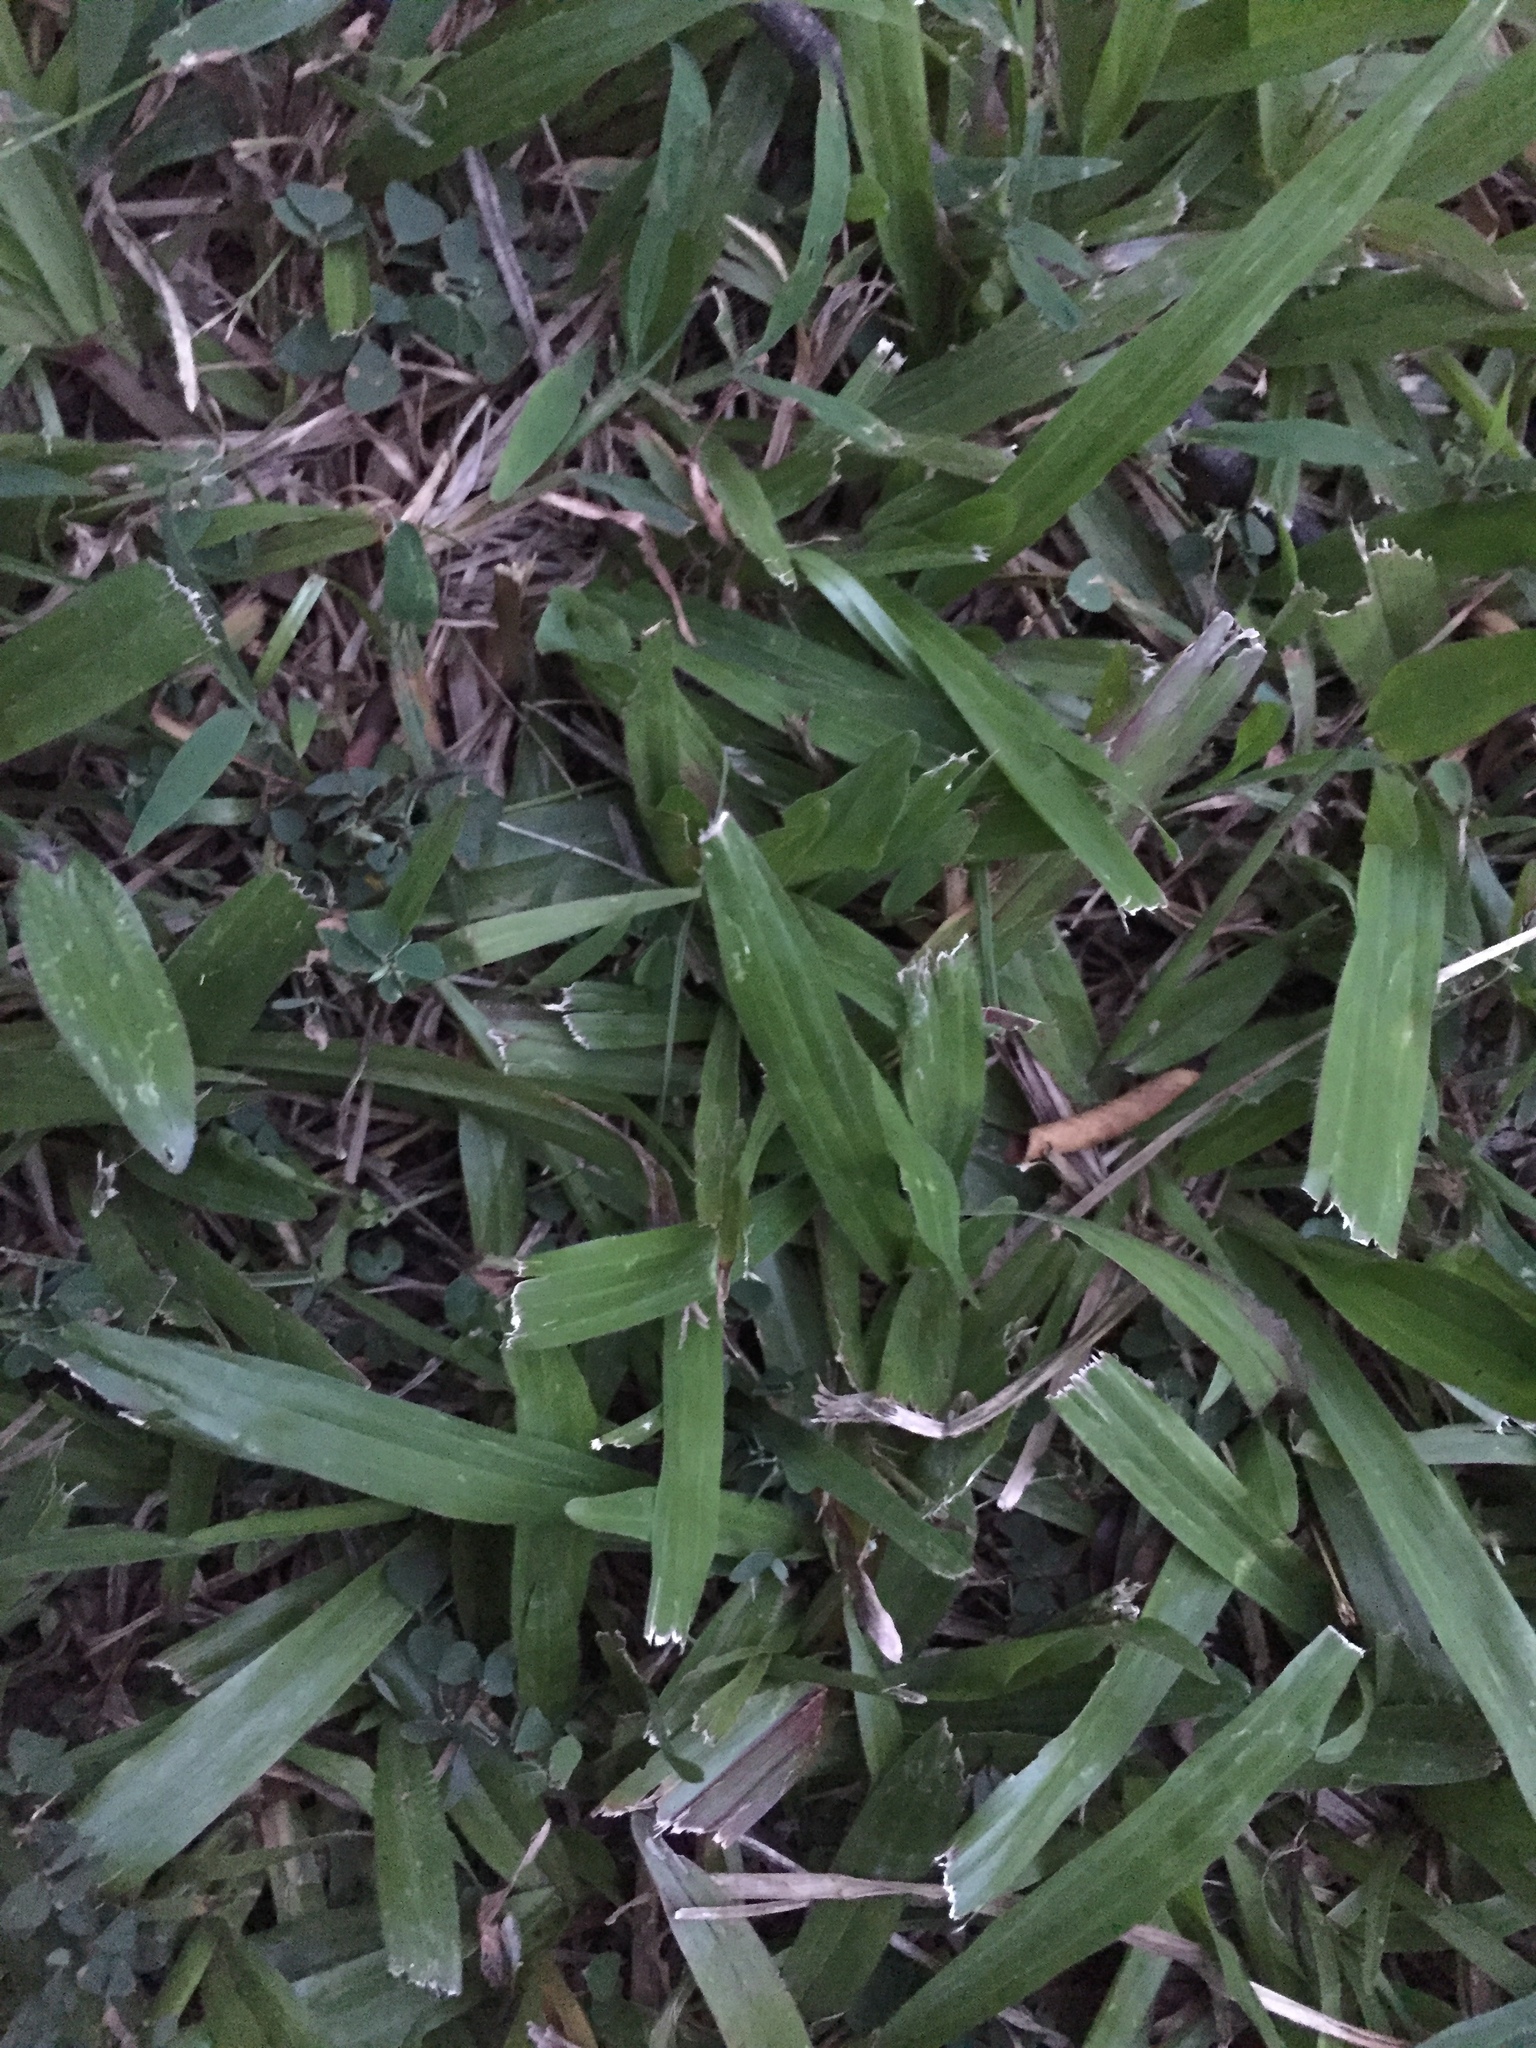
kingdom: Plantae
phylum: Tracheophyta
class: Liliopsida
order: Poales
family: Poaceae
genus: Axonopus
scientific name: Axonopus compressus
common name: American carpet grass
